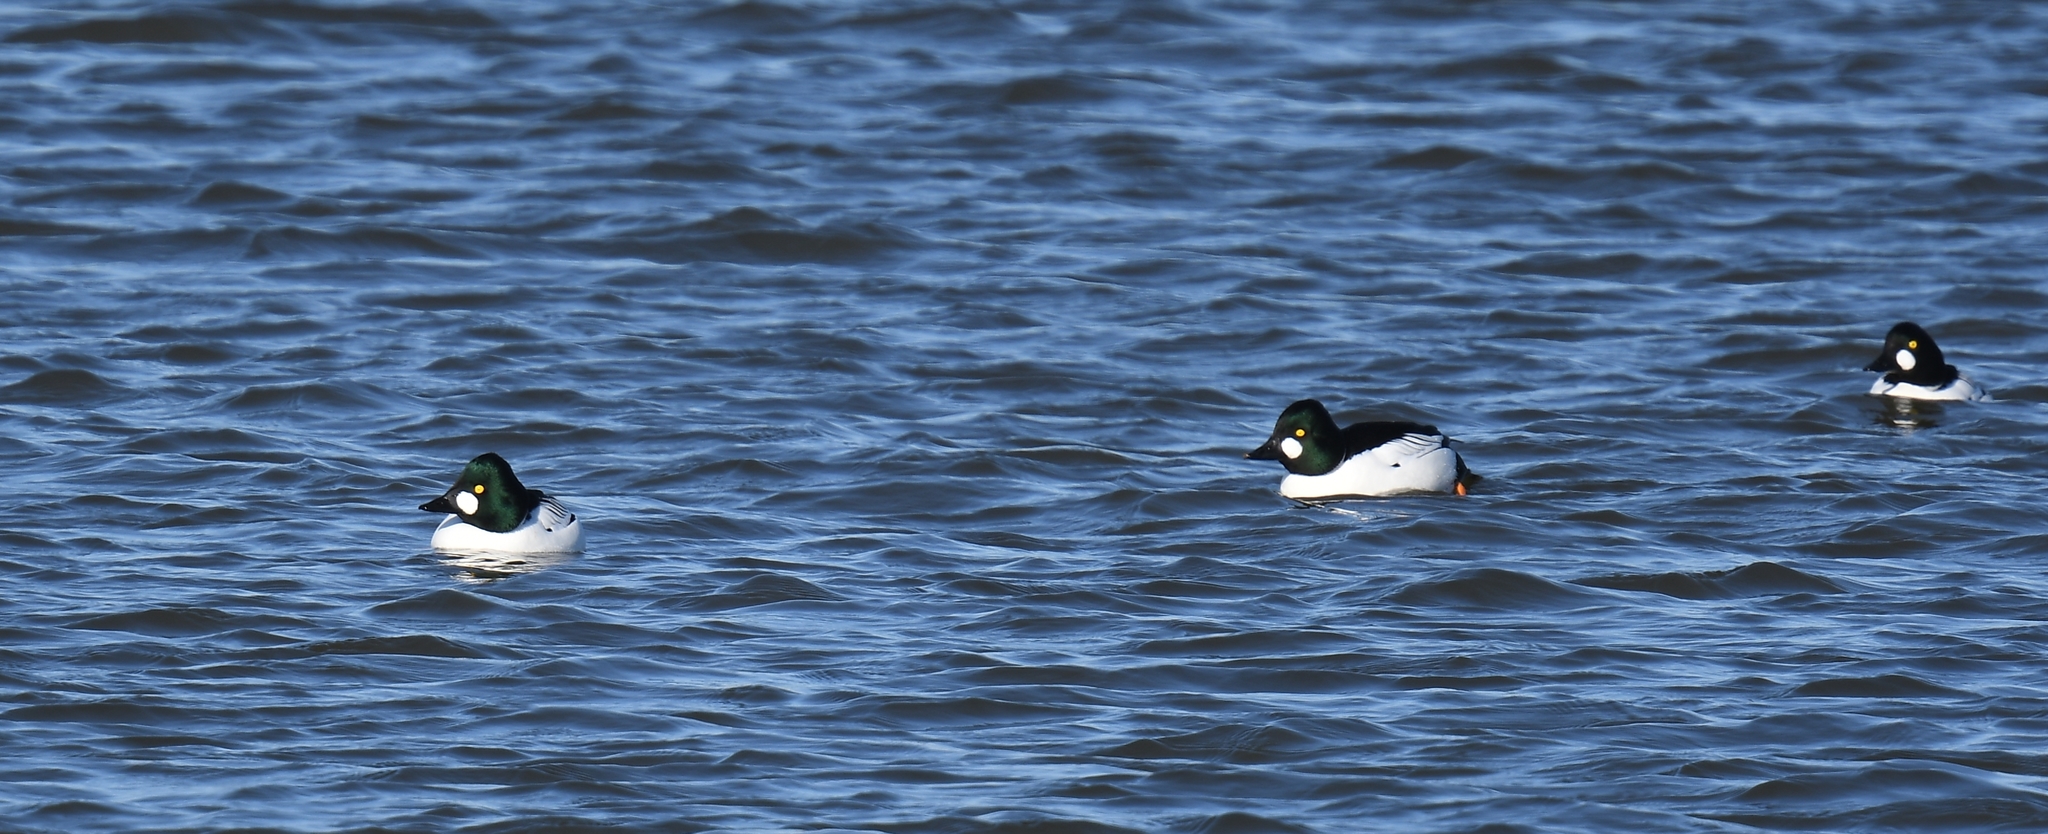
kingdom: Animalia
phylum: Chordata
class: Aves
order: Anseriformes
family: Anatidae
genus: Bucephala
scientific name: Bucephala clangula
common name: Common goldeneye
